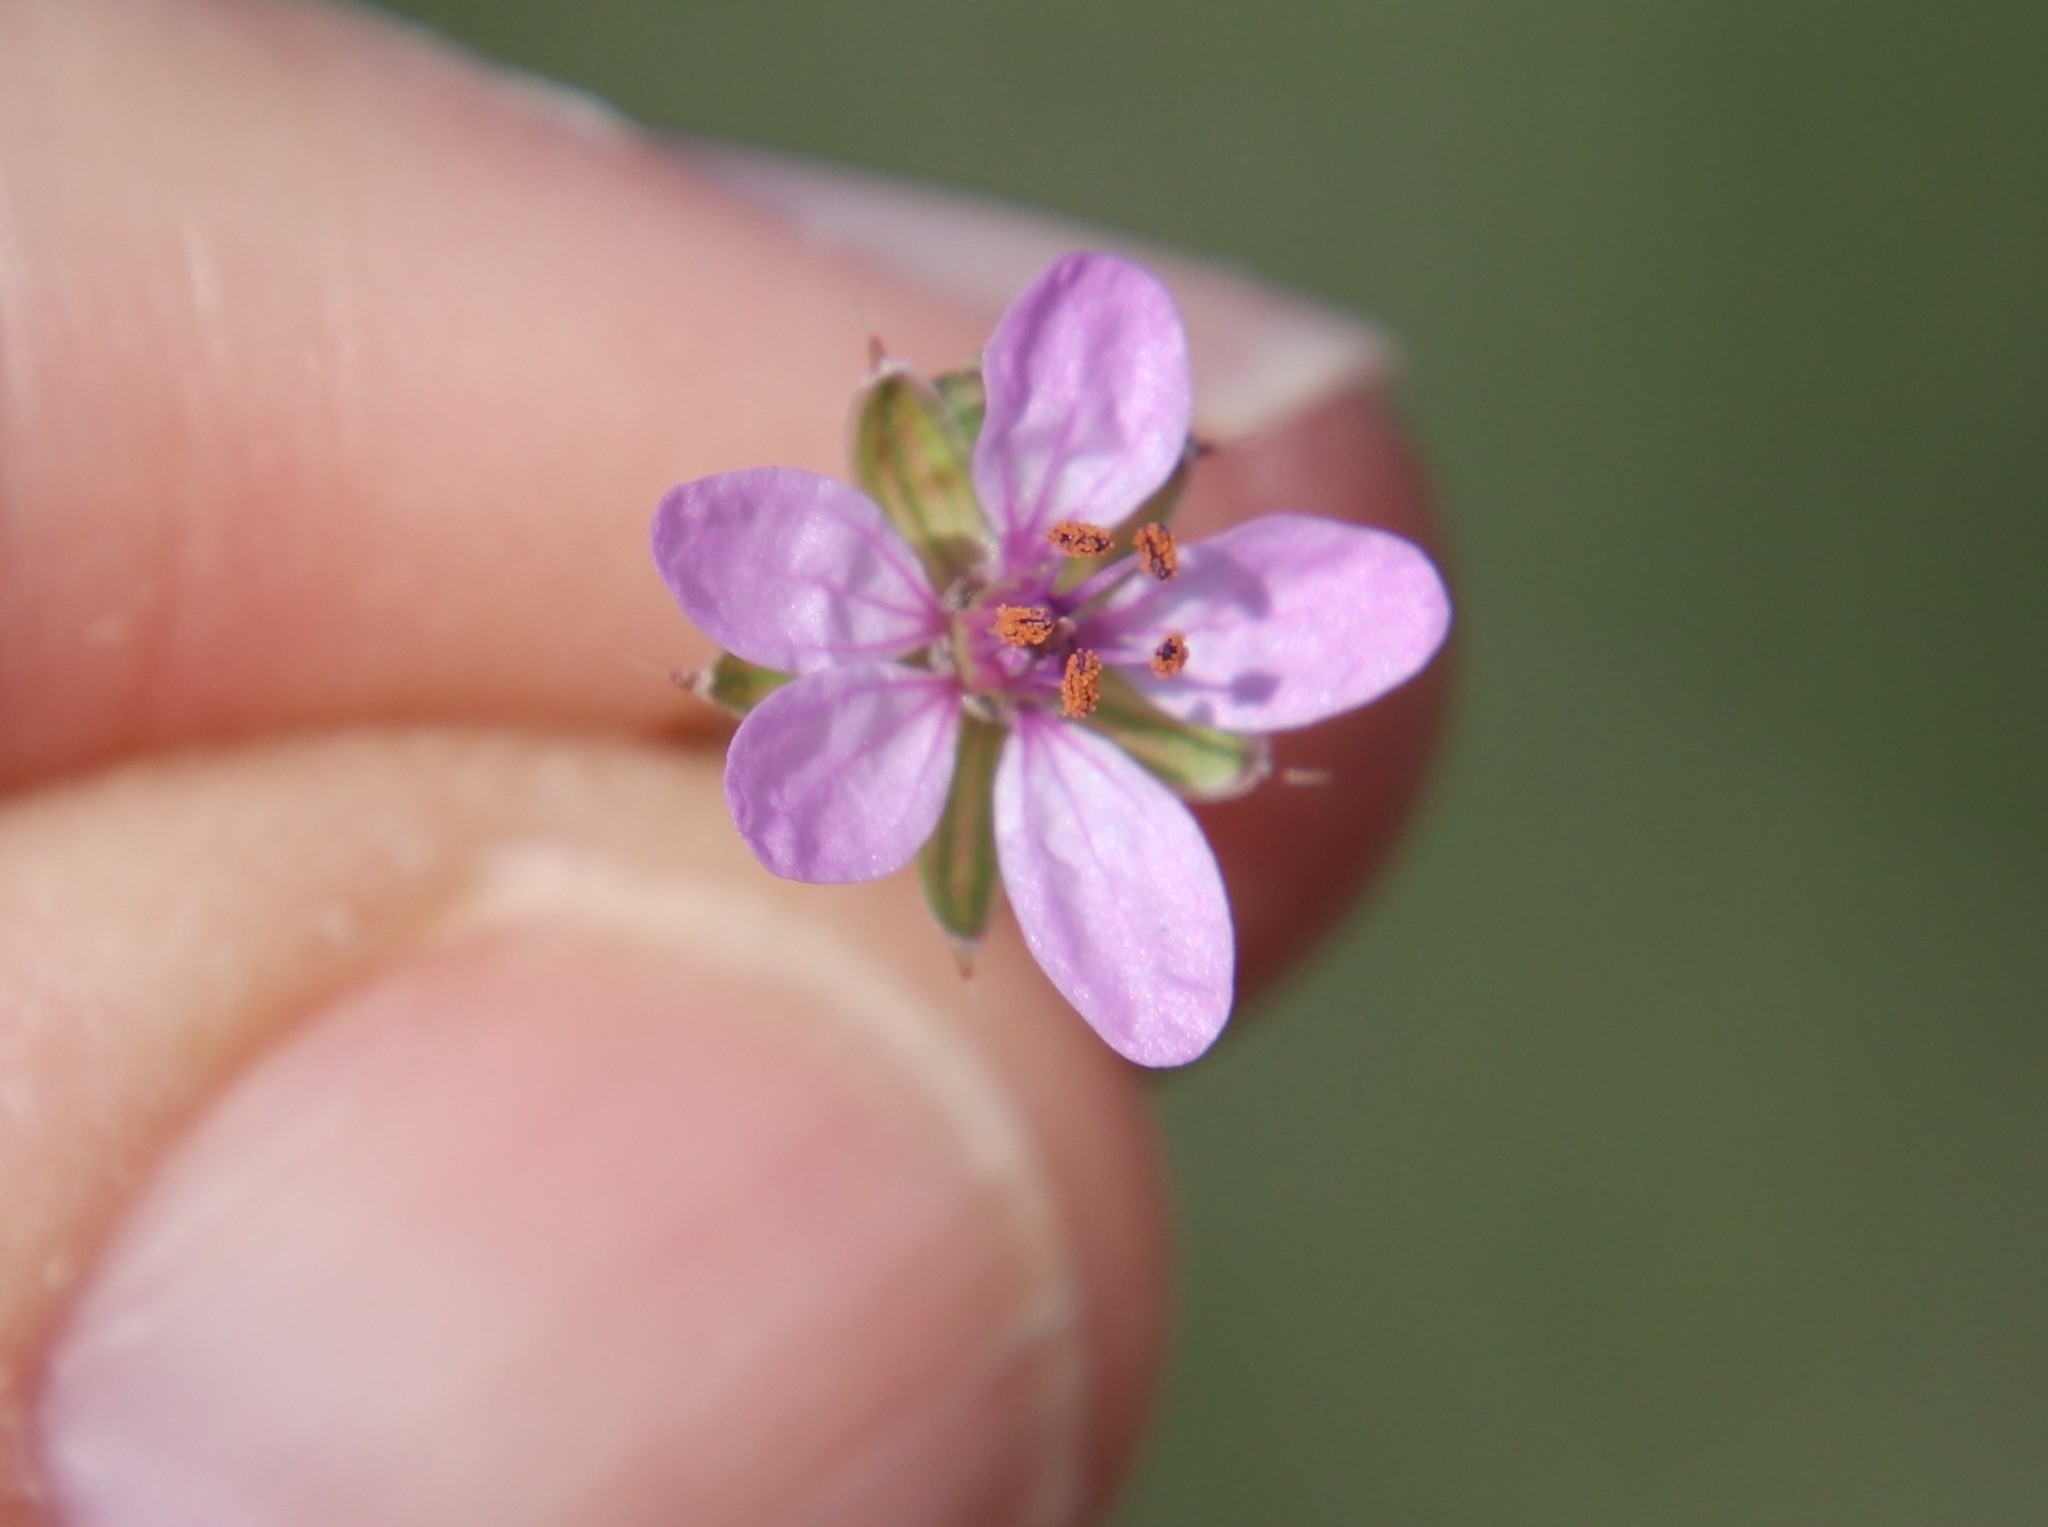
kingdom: Plantae
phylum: Tracheophyta
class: Magnoliopsida
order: Geraniales
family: Geraniaceae
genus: Erodium
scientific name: Erodium cicutarium
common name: Common stork's-bill
